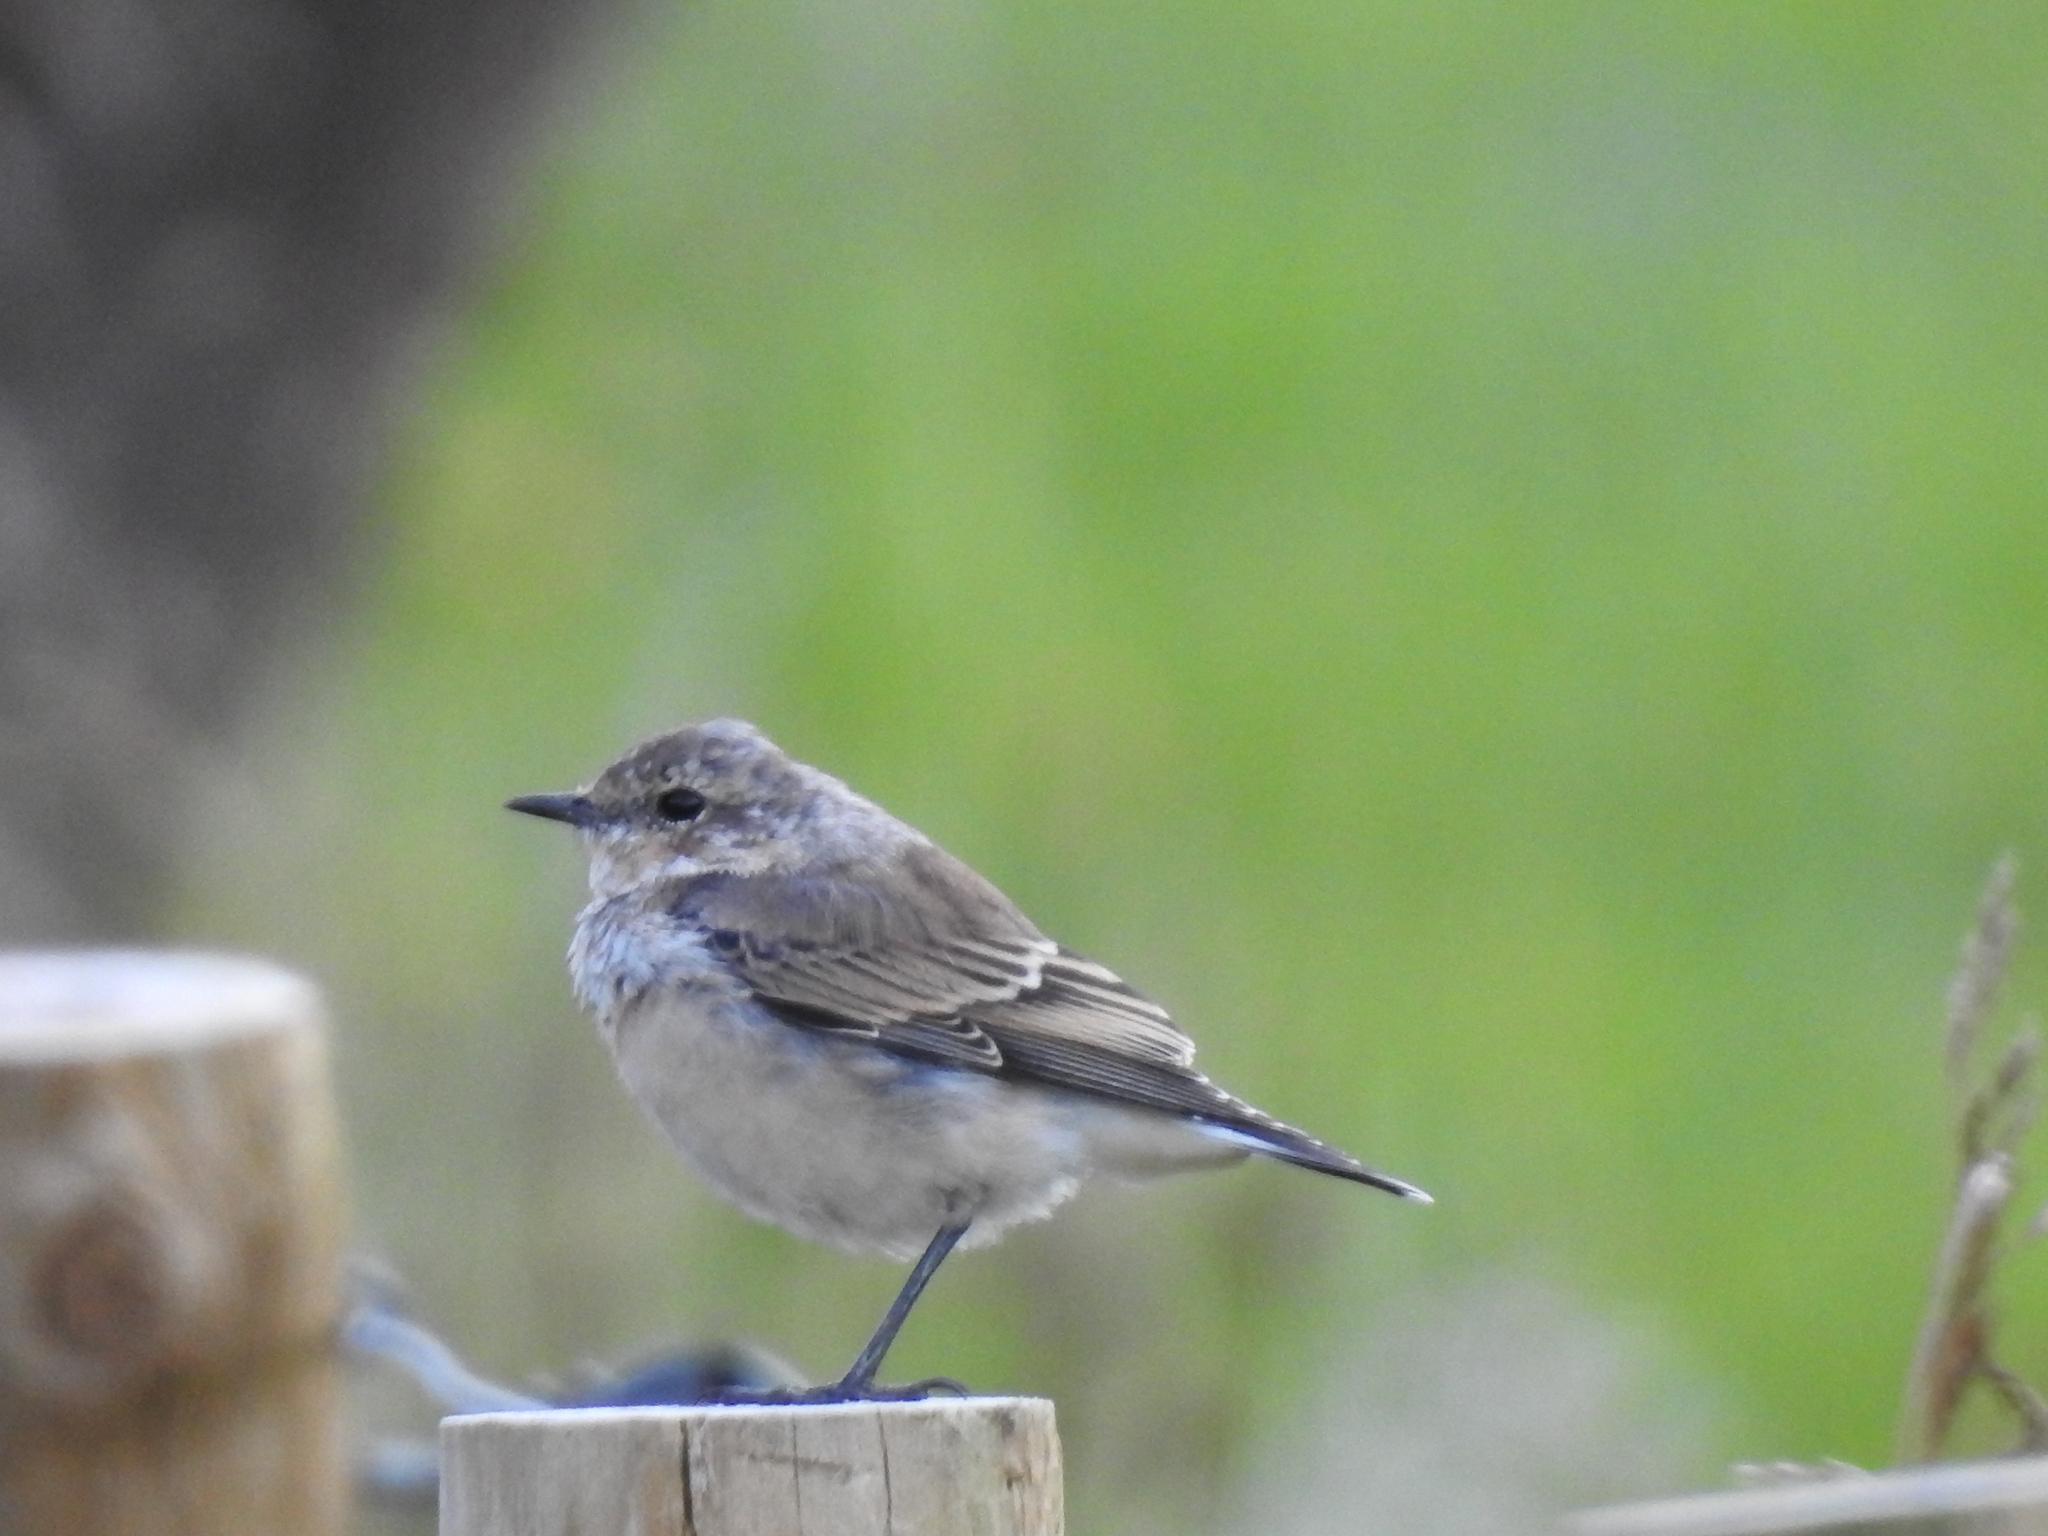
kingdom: Animalia
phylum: Chordata
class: Aves
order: Passeriformes
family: Muscicapidae
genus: Oenanthe
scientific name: Oenanthe oenanthe
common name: Northern wheatear
